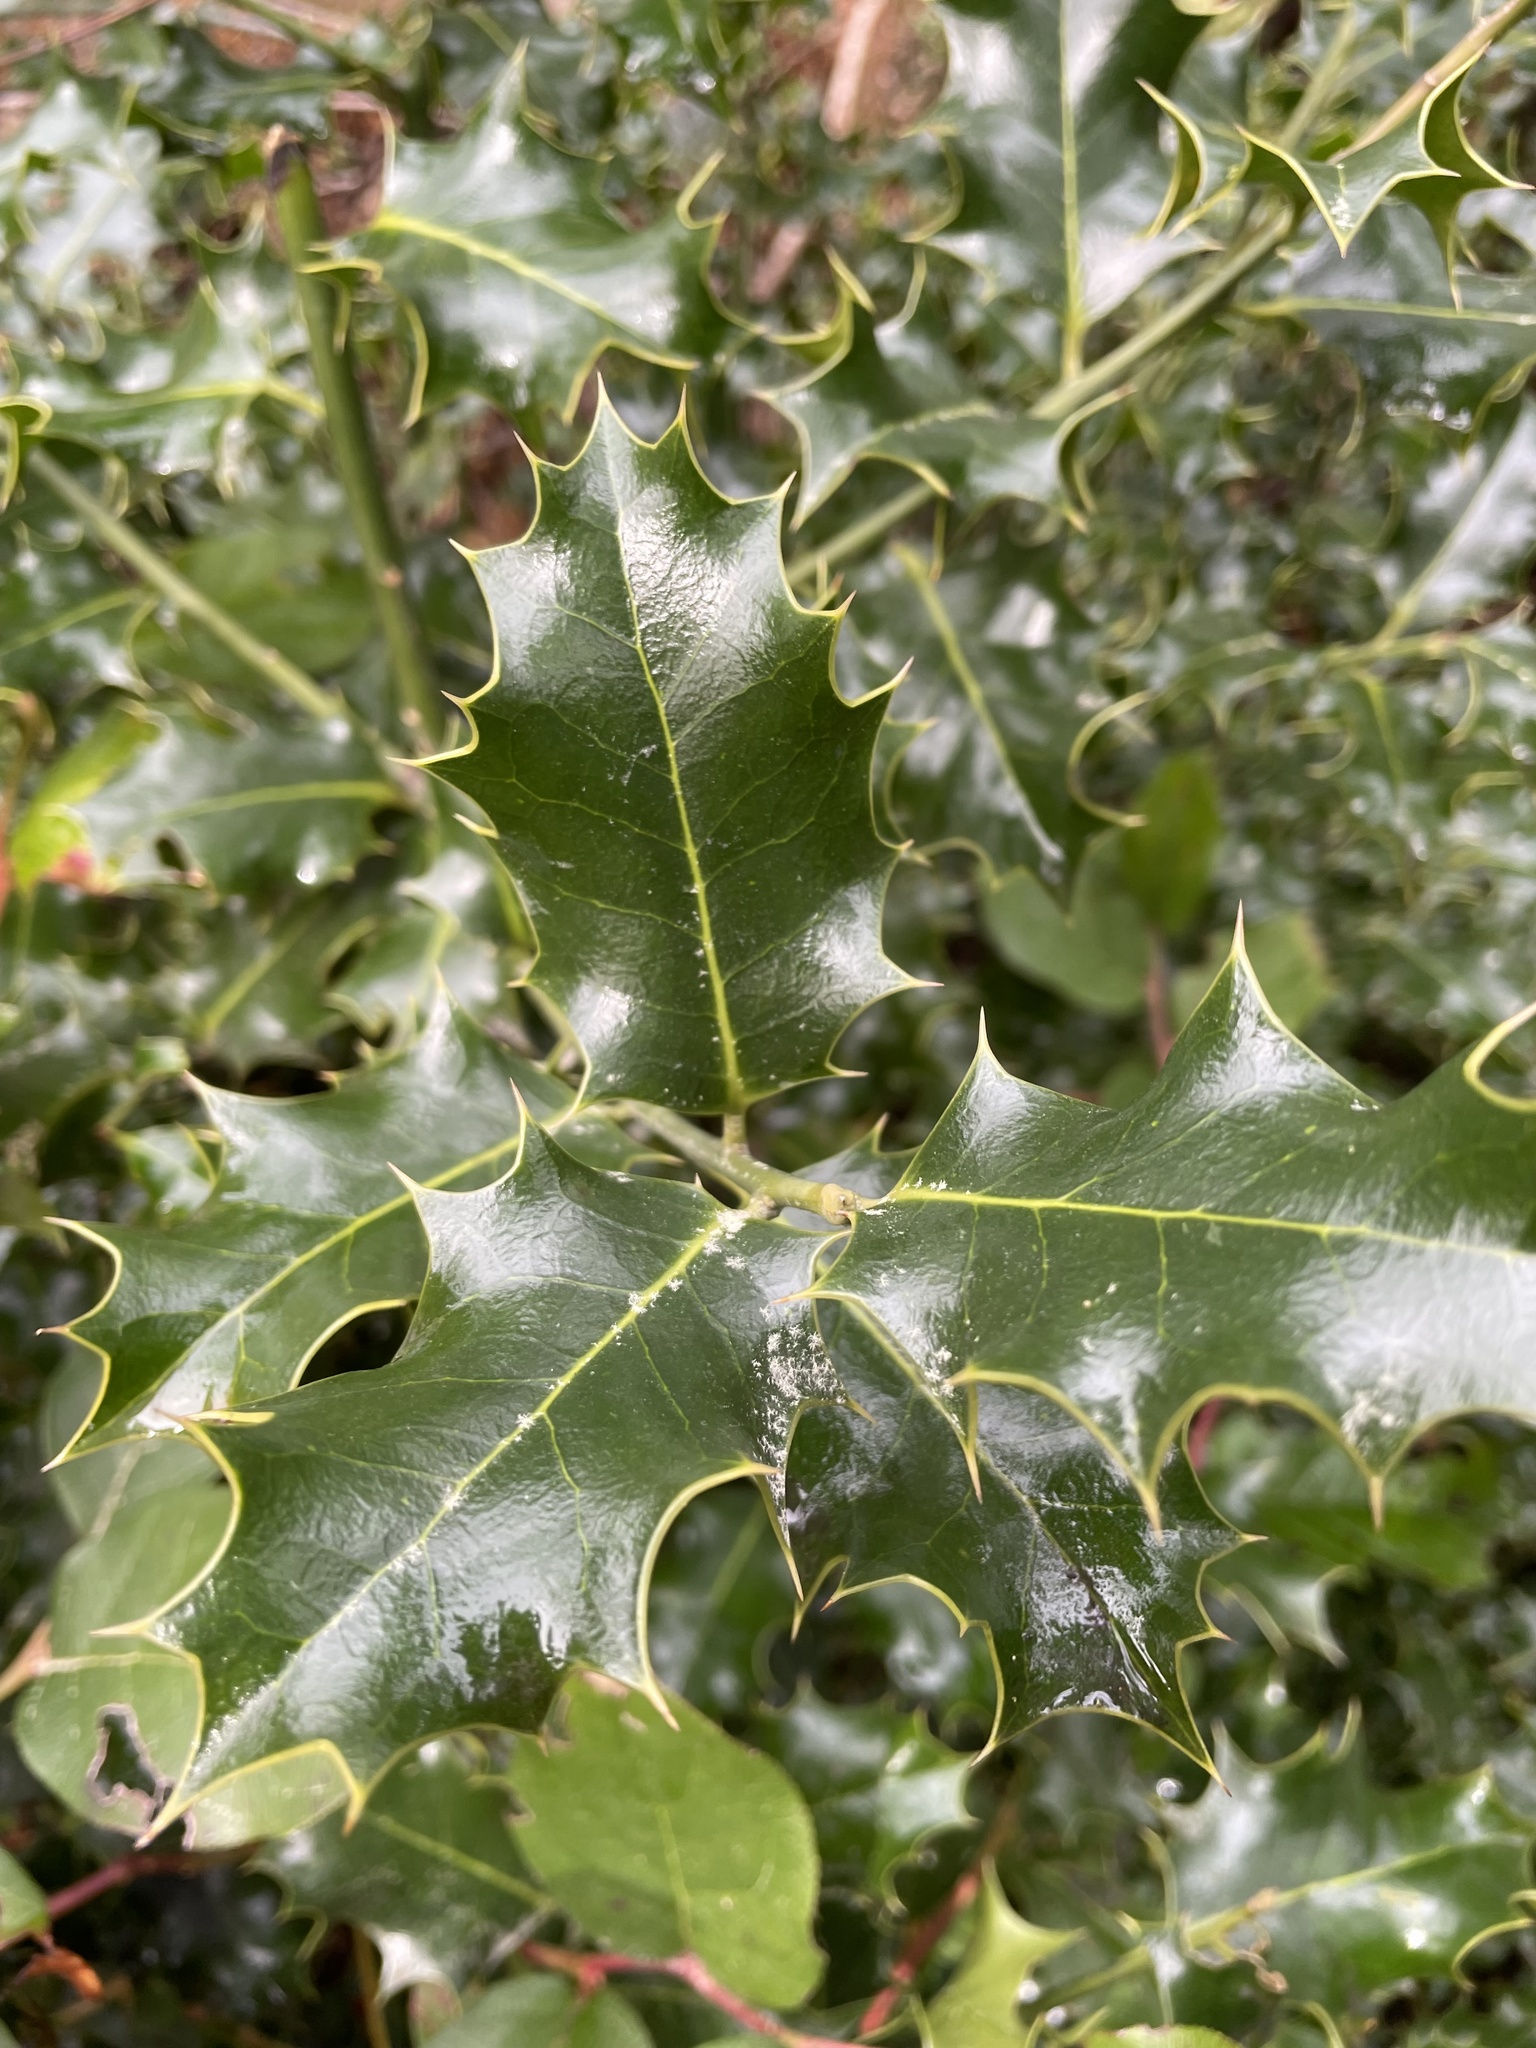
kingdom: Plantae
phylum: Tracheophyta
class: Magnoliopsida
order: Aquifoliales
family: Aquifoliaceae
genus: Ilex
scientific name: Ilex aquifolium
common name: English holly
